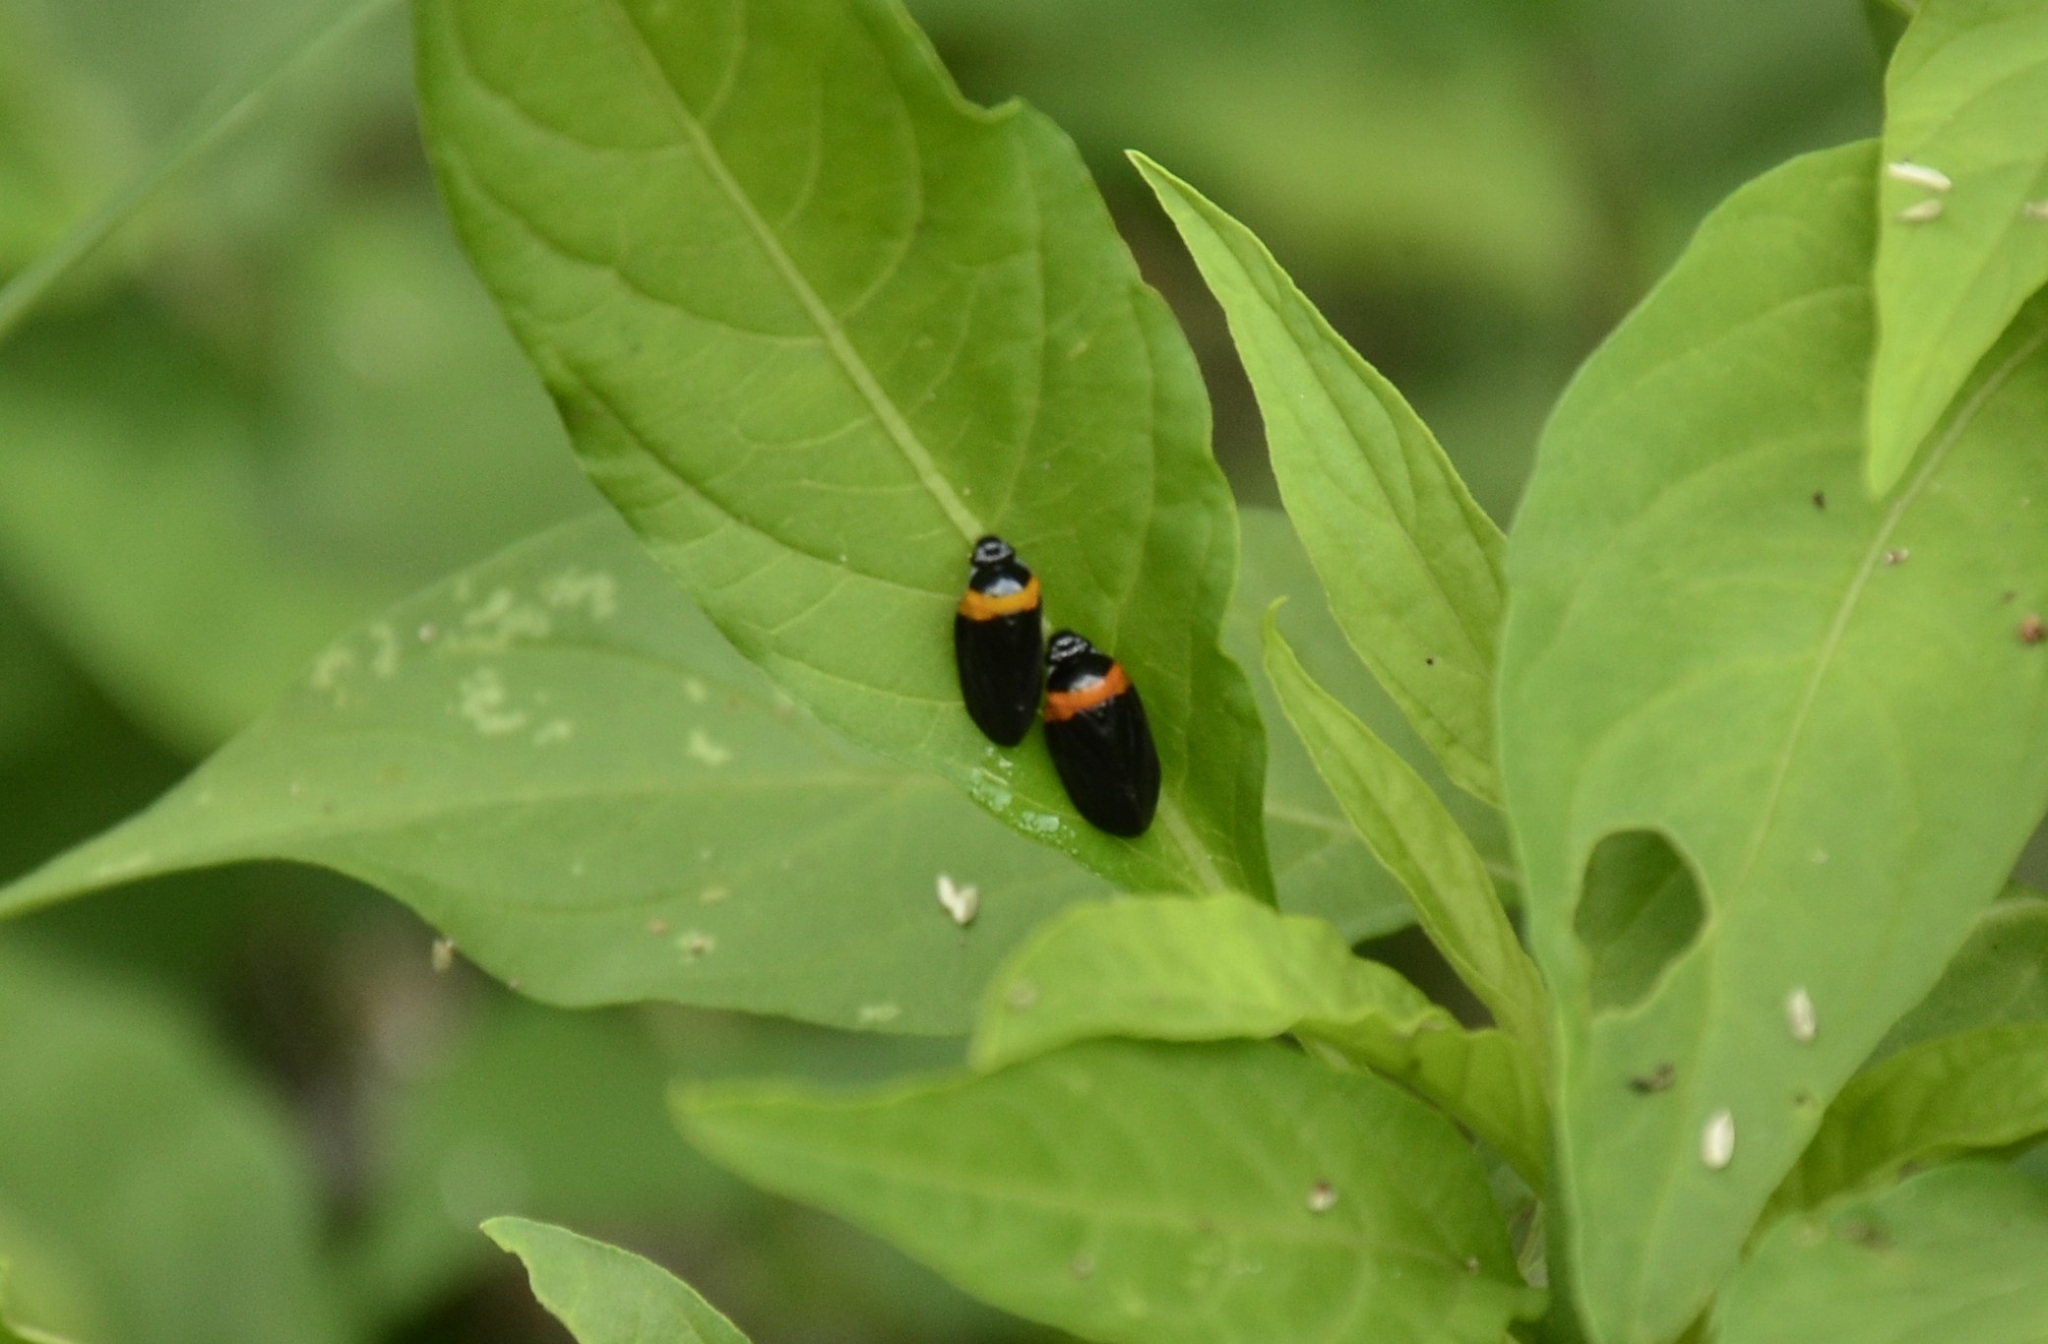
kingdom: Animalia
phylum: Arthropoda
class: Insecta
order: Hemiptera
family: Cercopidae
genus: Phymatostetha
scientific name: Phymatostetha deschampsi
